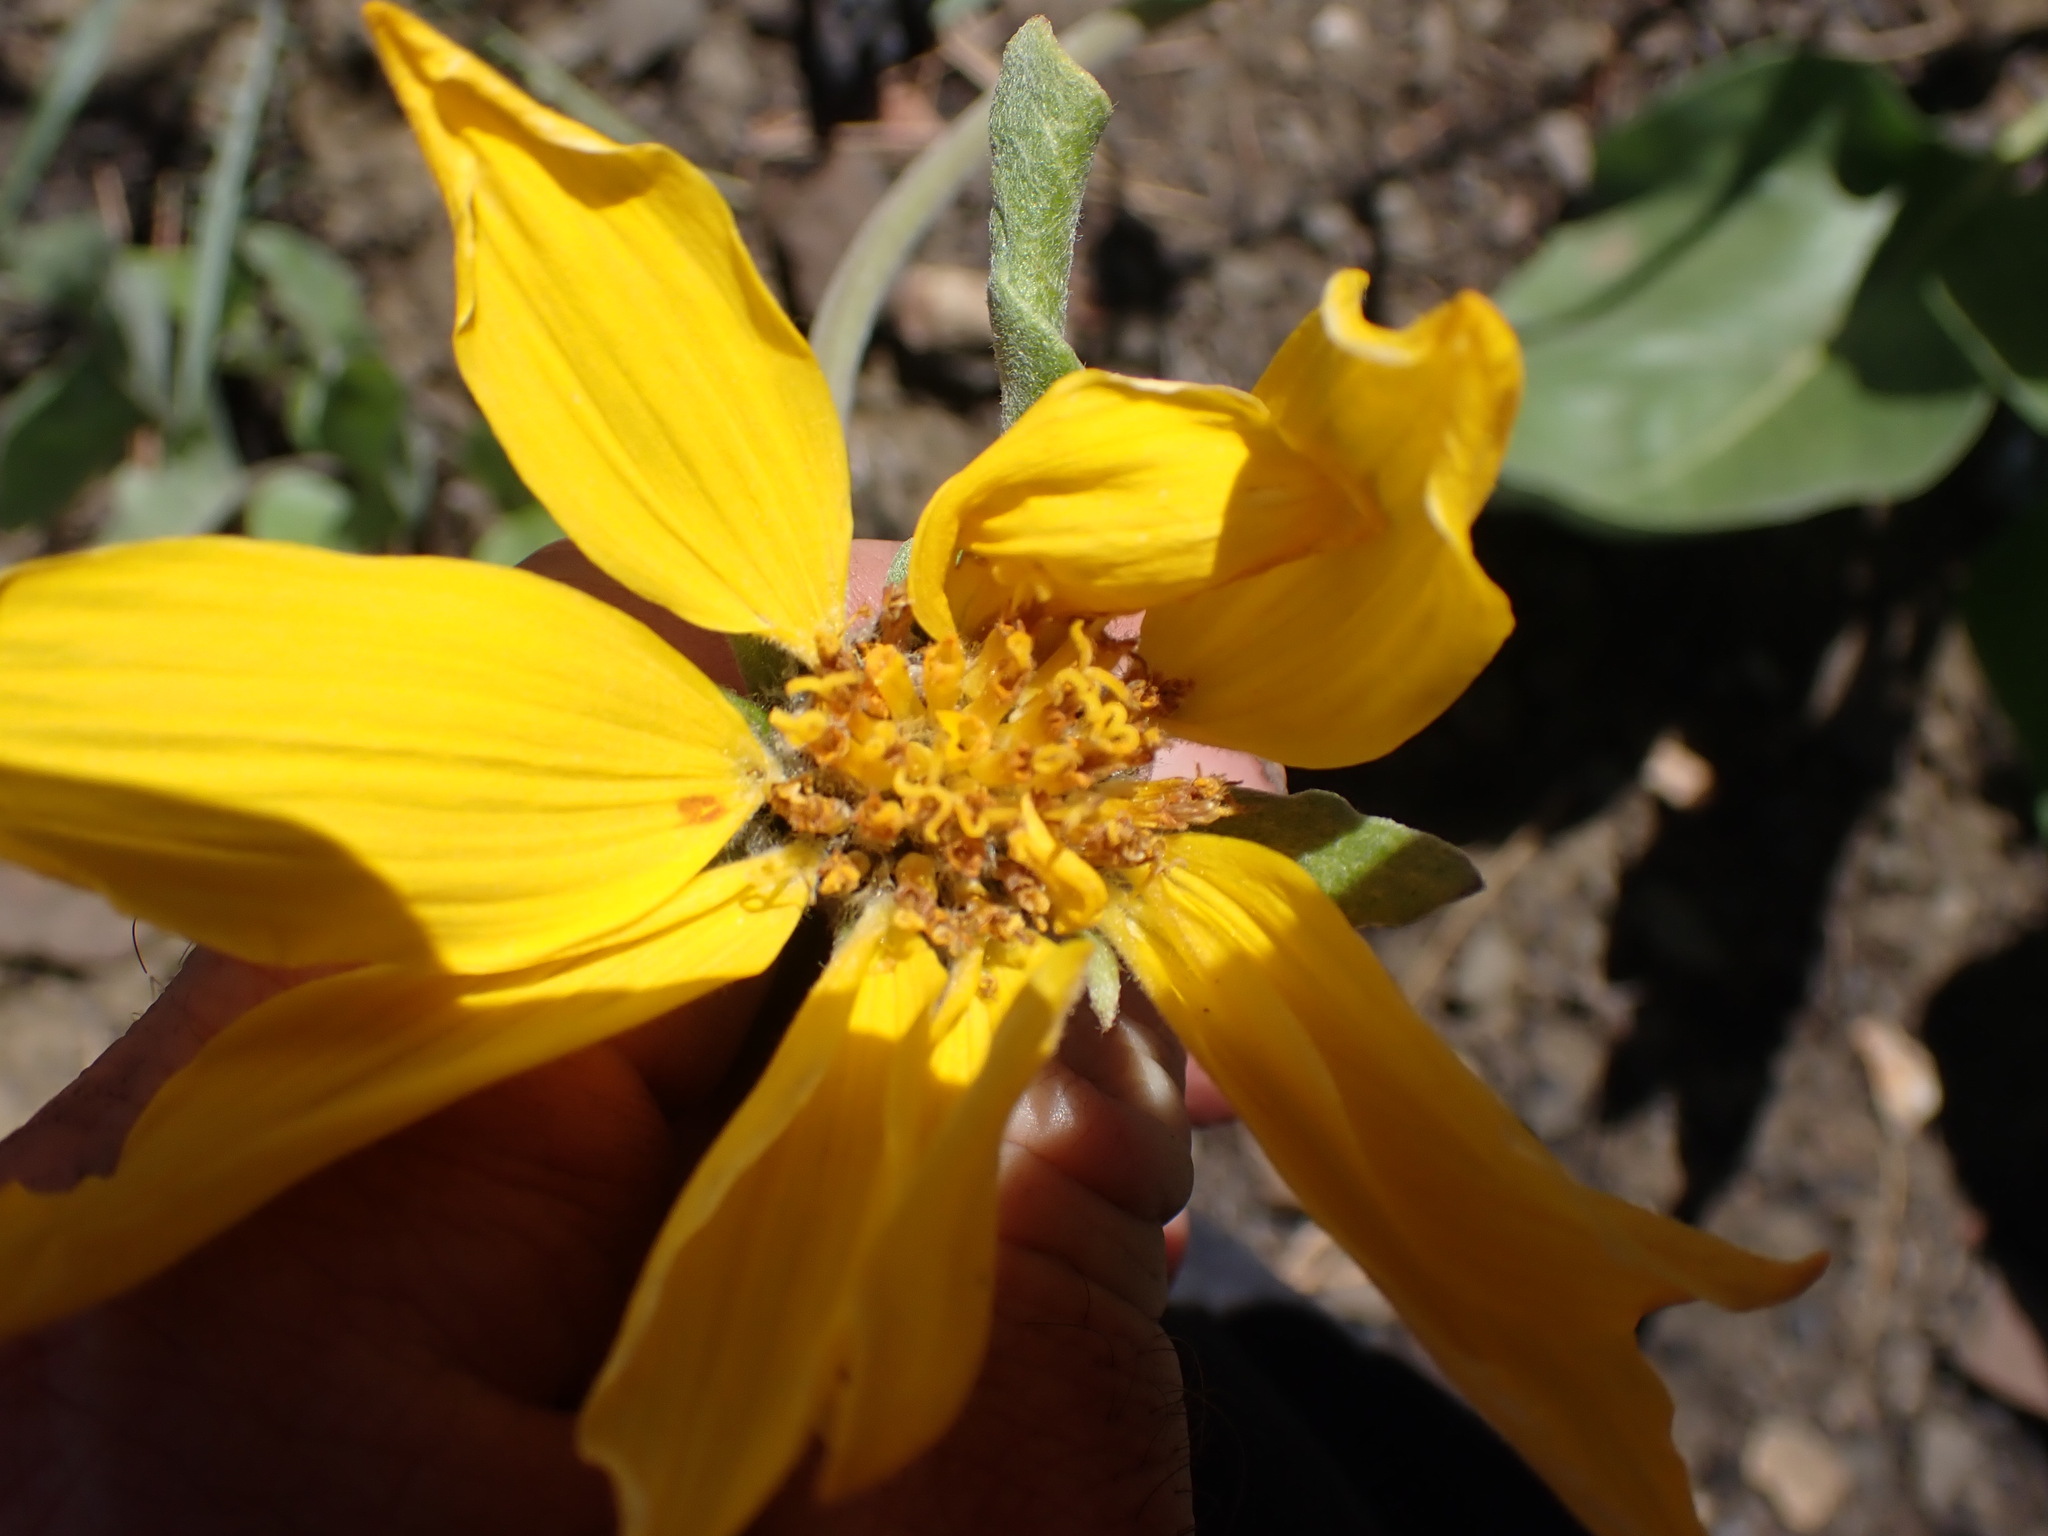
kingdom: Plantae
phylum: Tracheophyta
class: Magnoliopsida
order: Asterales
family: Asteraceae
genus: Wyethia
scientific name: Wyethia sagittata
